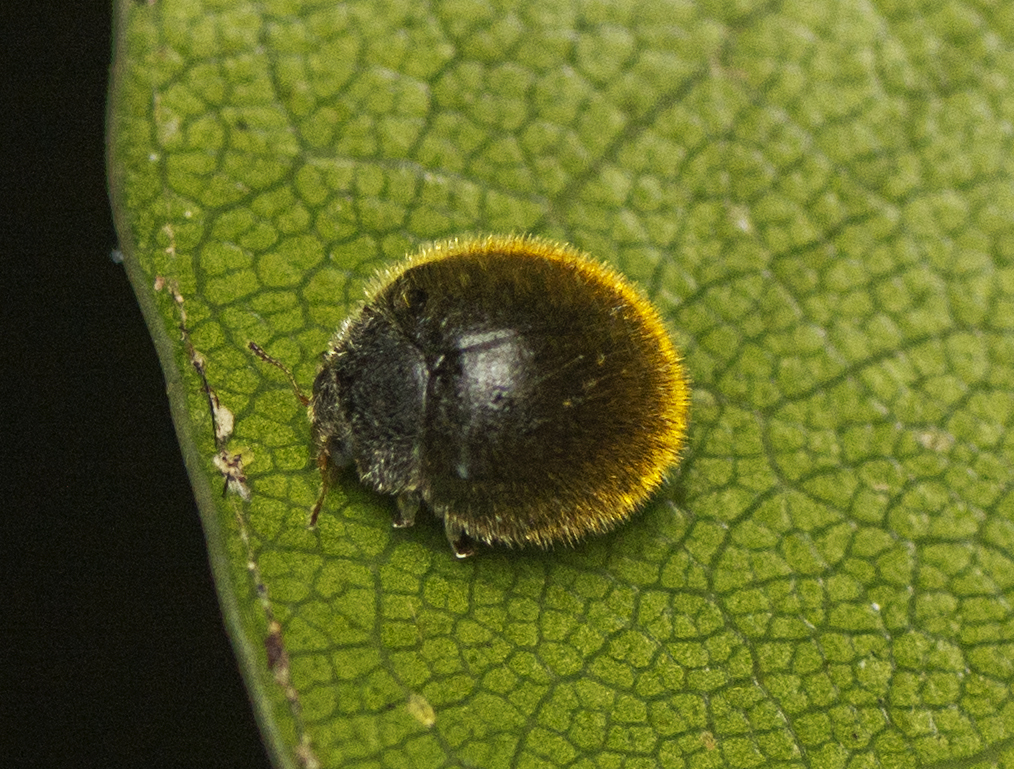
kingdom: Animalia
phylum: Arthropoda
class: Insecta
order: Coleoptera
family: Coccinellidae
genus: Erithionyx
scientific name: Erithionyx
